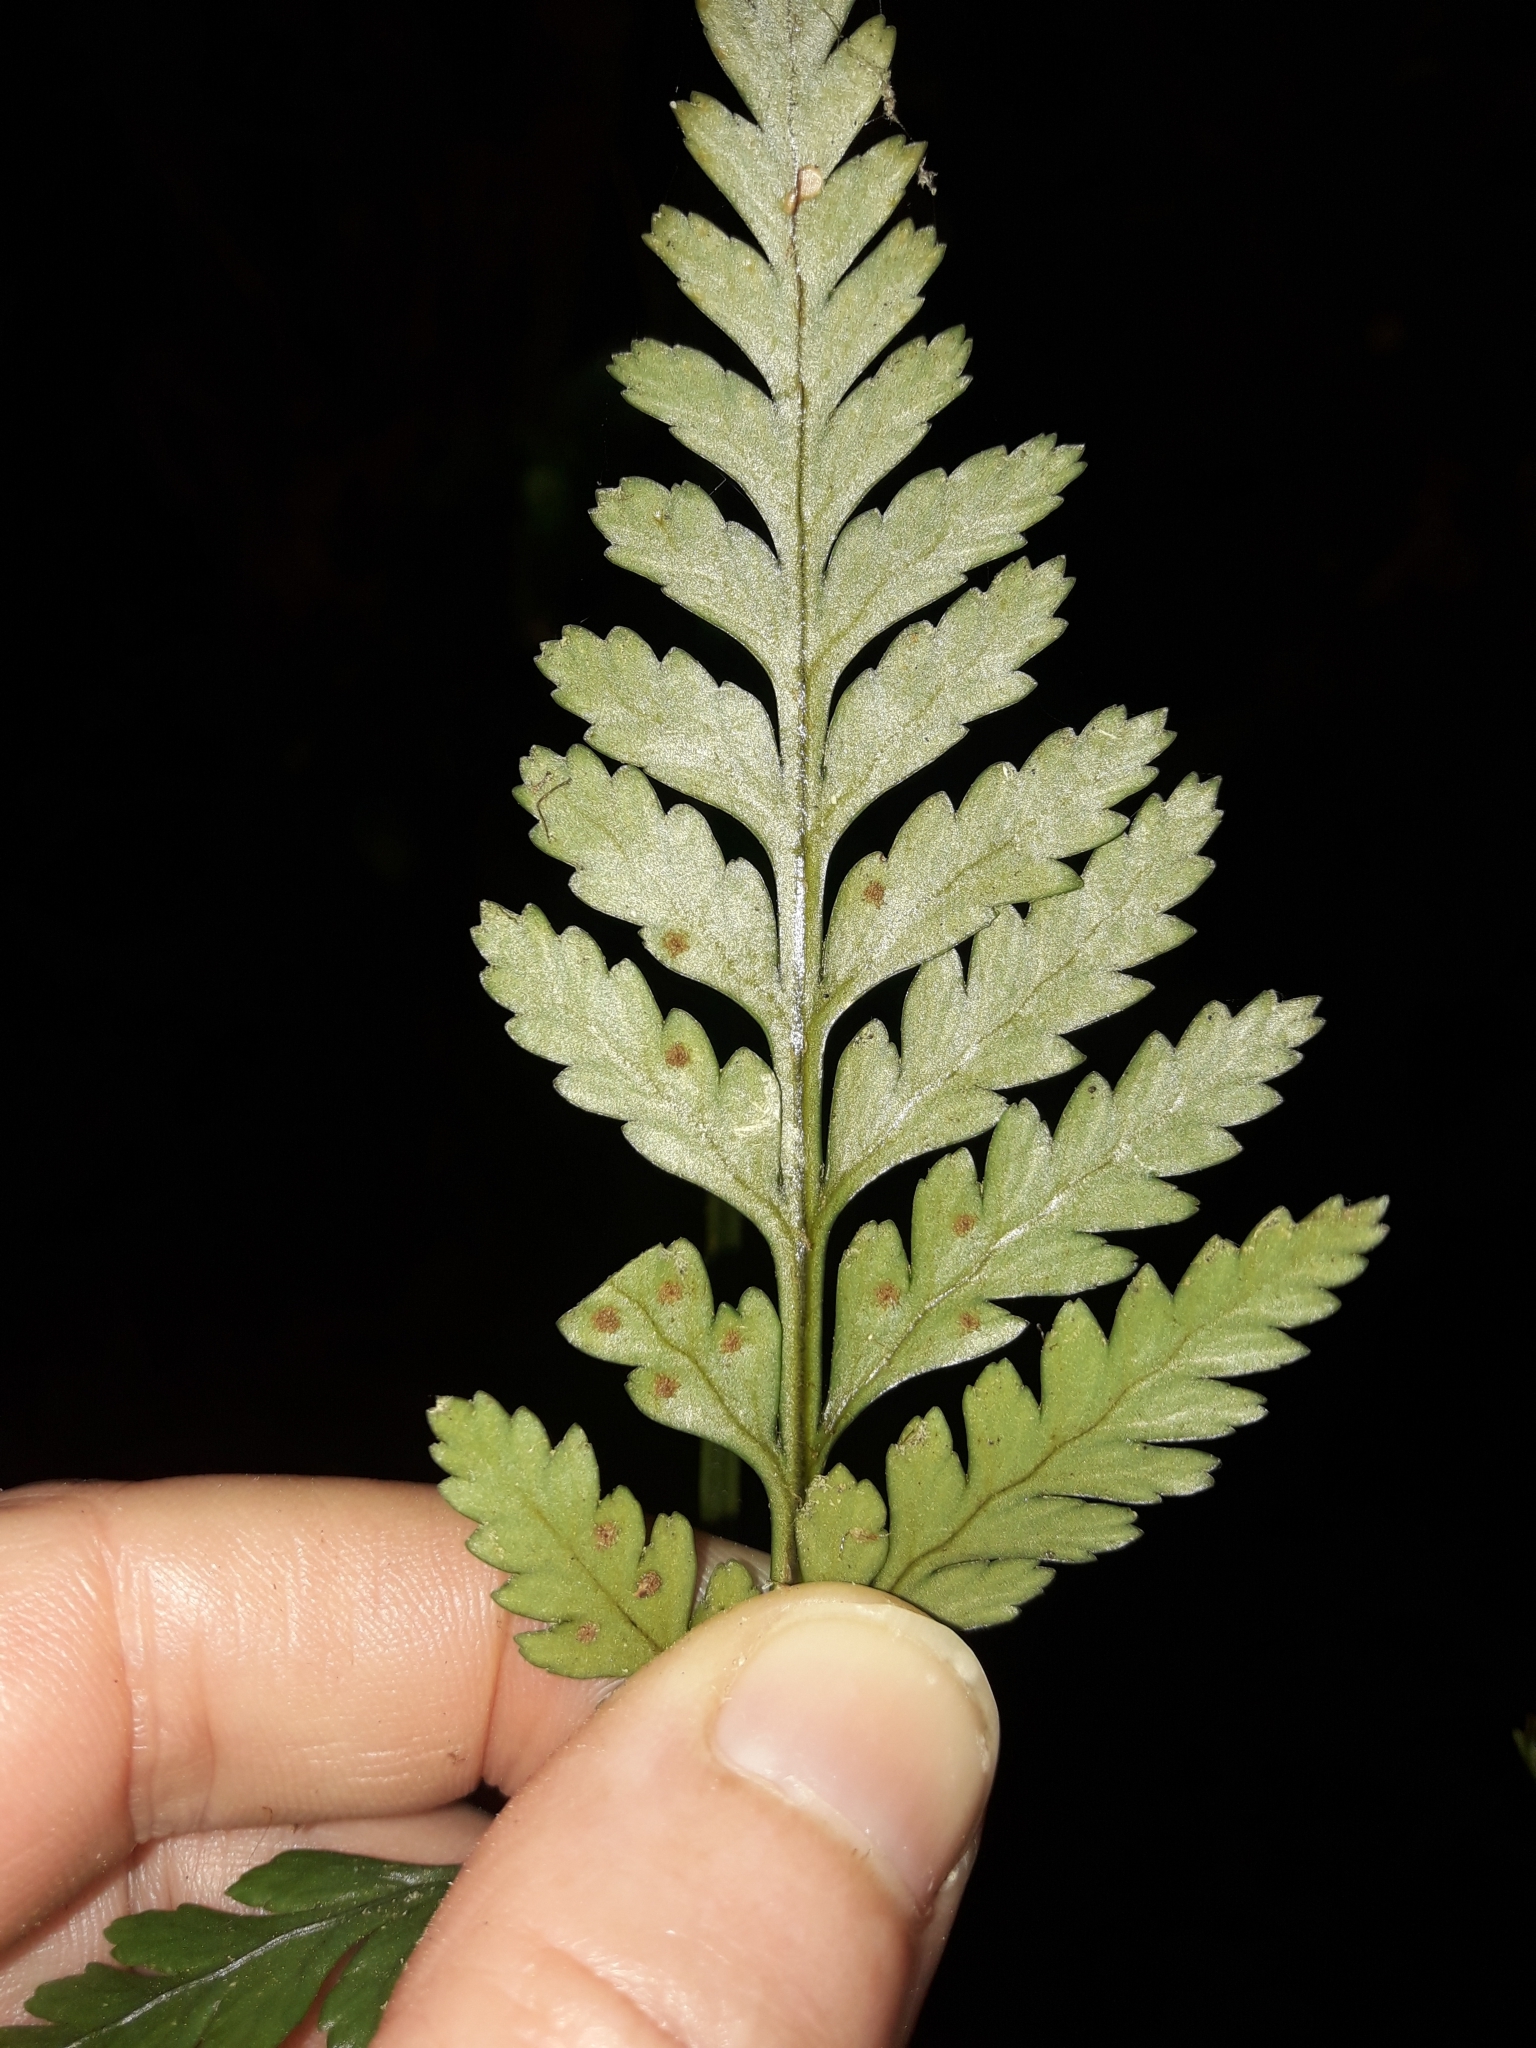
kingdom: Plantae
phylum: Tracheophyta
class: Polypodiopsida
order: Polypodiales
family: Dryopteridaceae
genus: Rumohra
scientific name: Rumohra adiantiformis
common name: Leather fern
